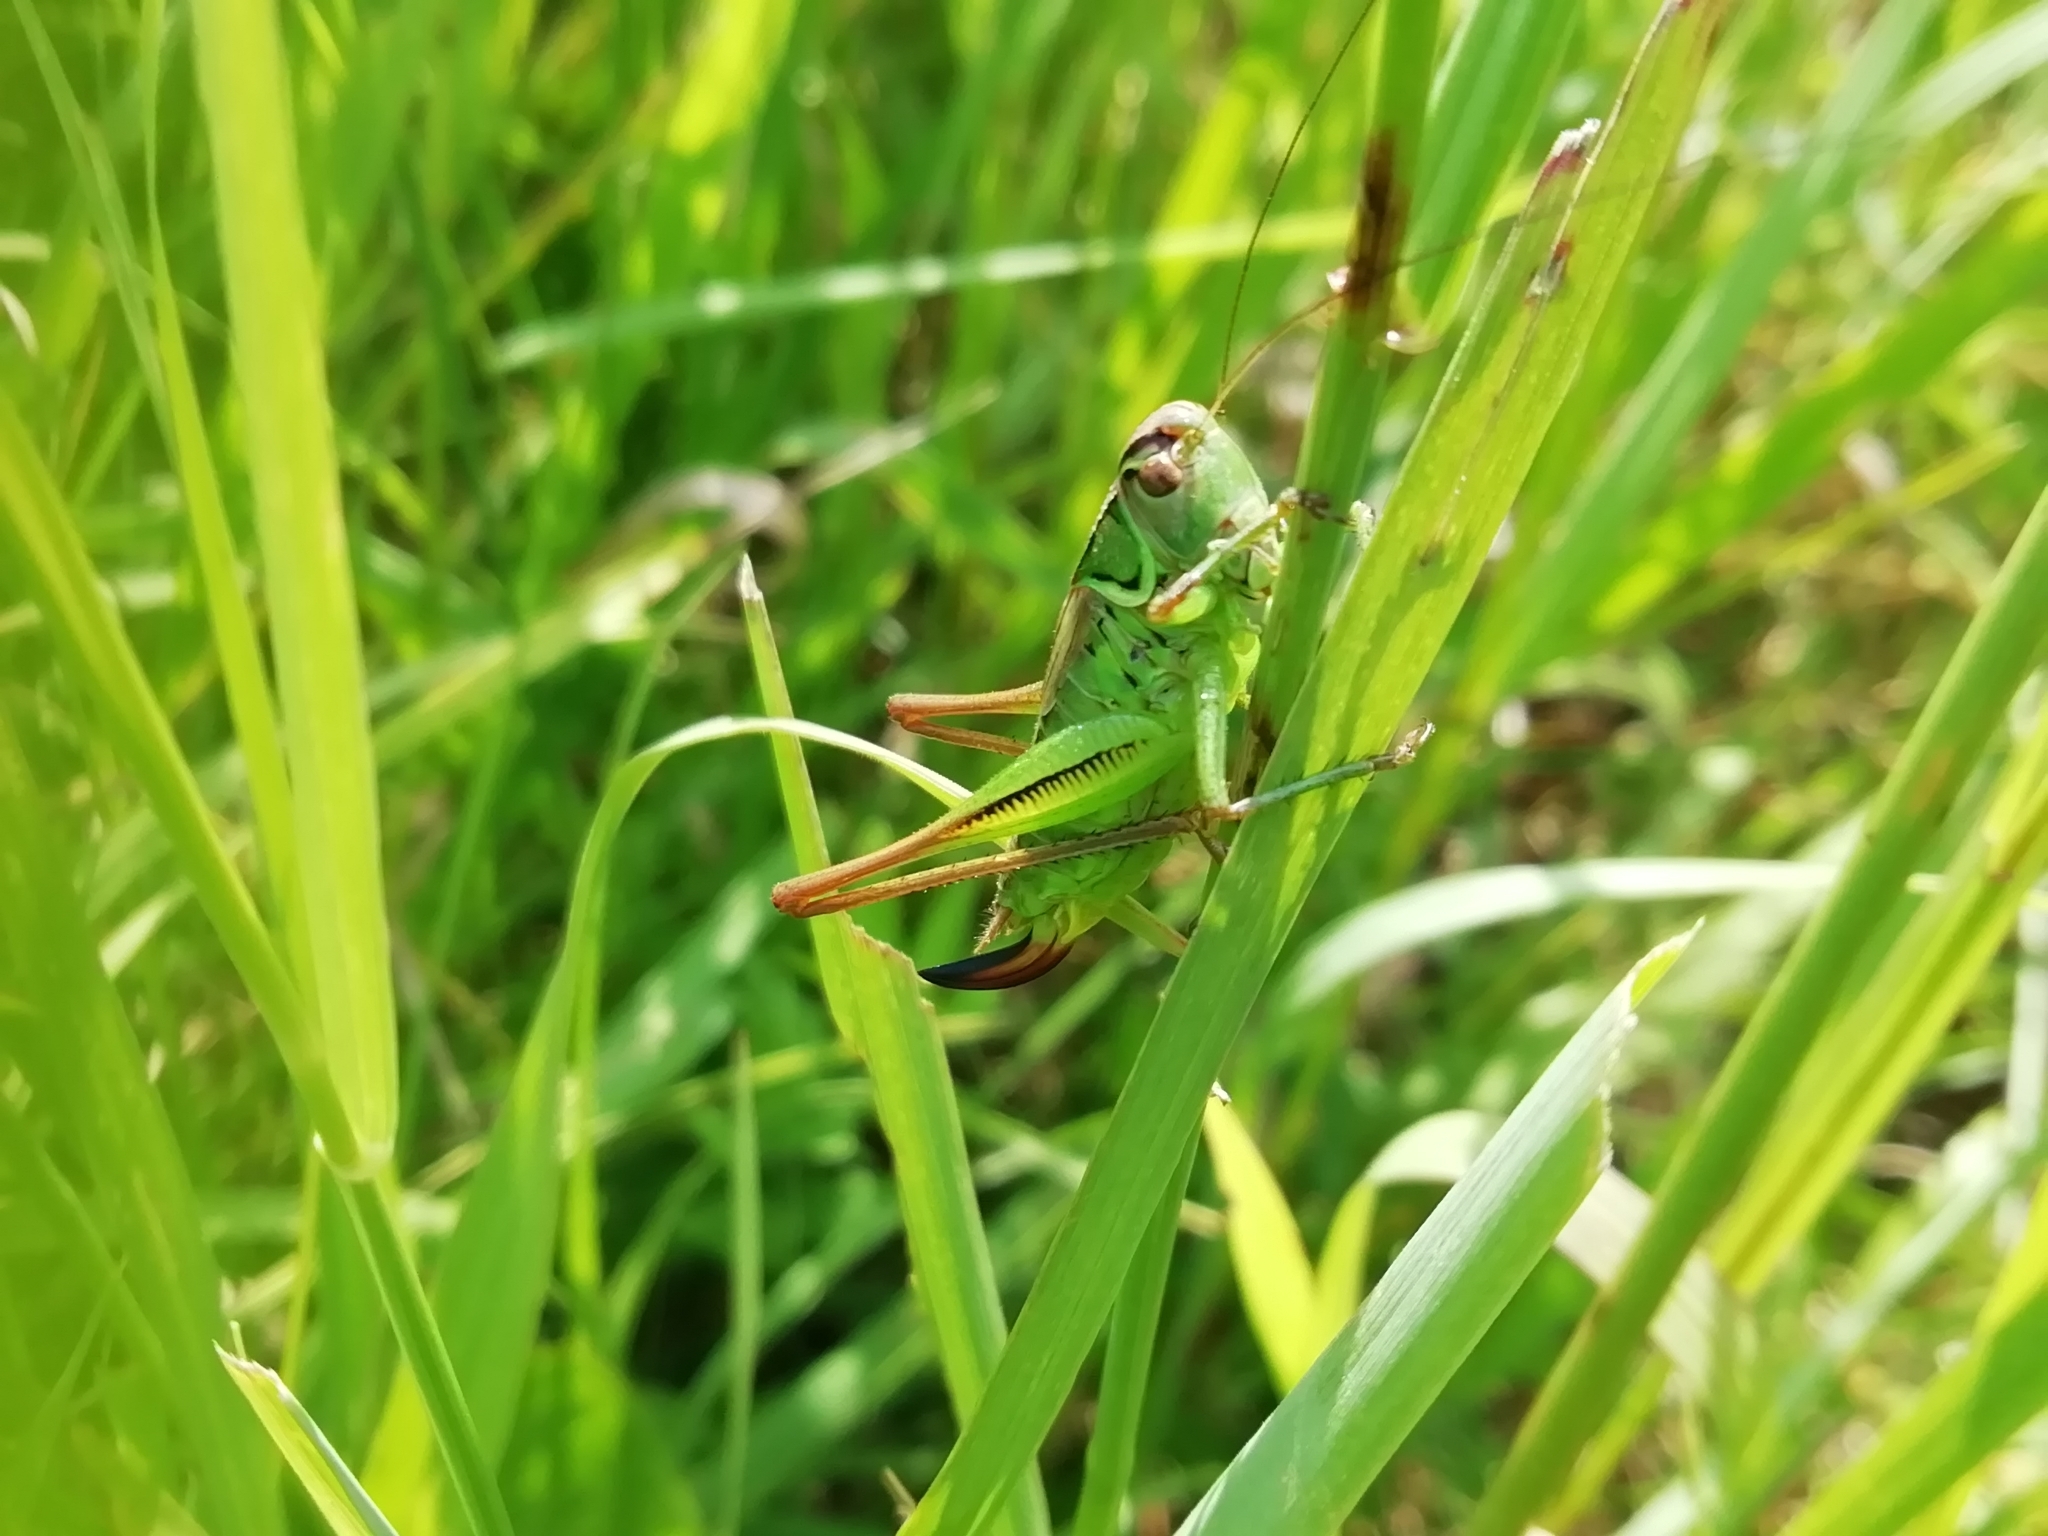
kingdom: Animalia
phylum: Arthropoda
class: Insecta
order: Orthoptera
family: Tettigoniidae
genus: Roeseliana
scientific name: Roeseliana roeselii
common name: Roesel's bush cricket
